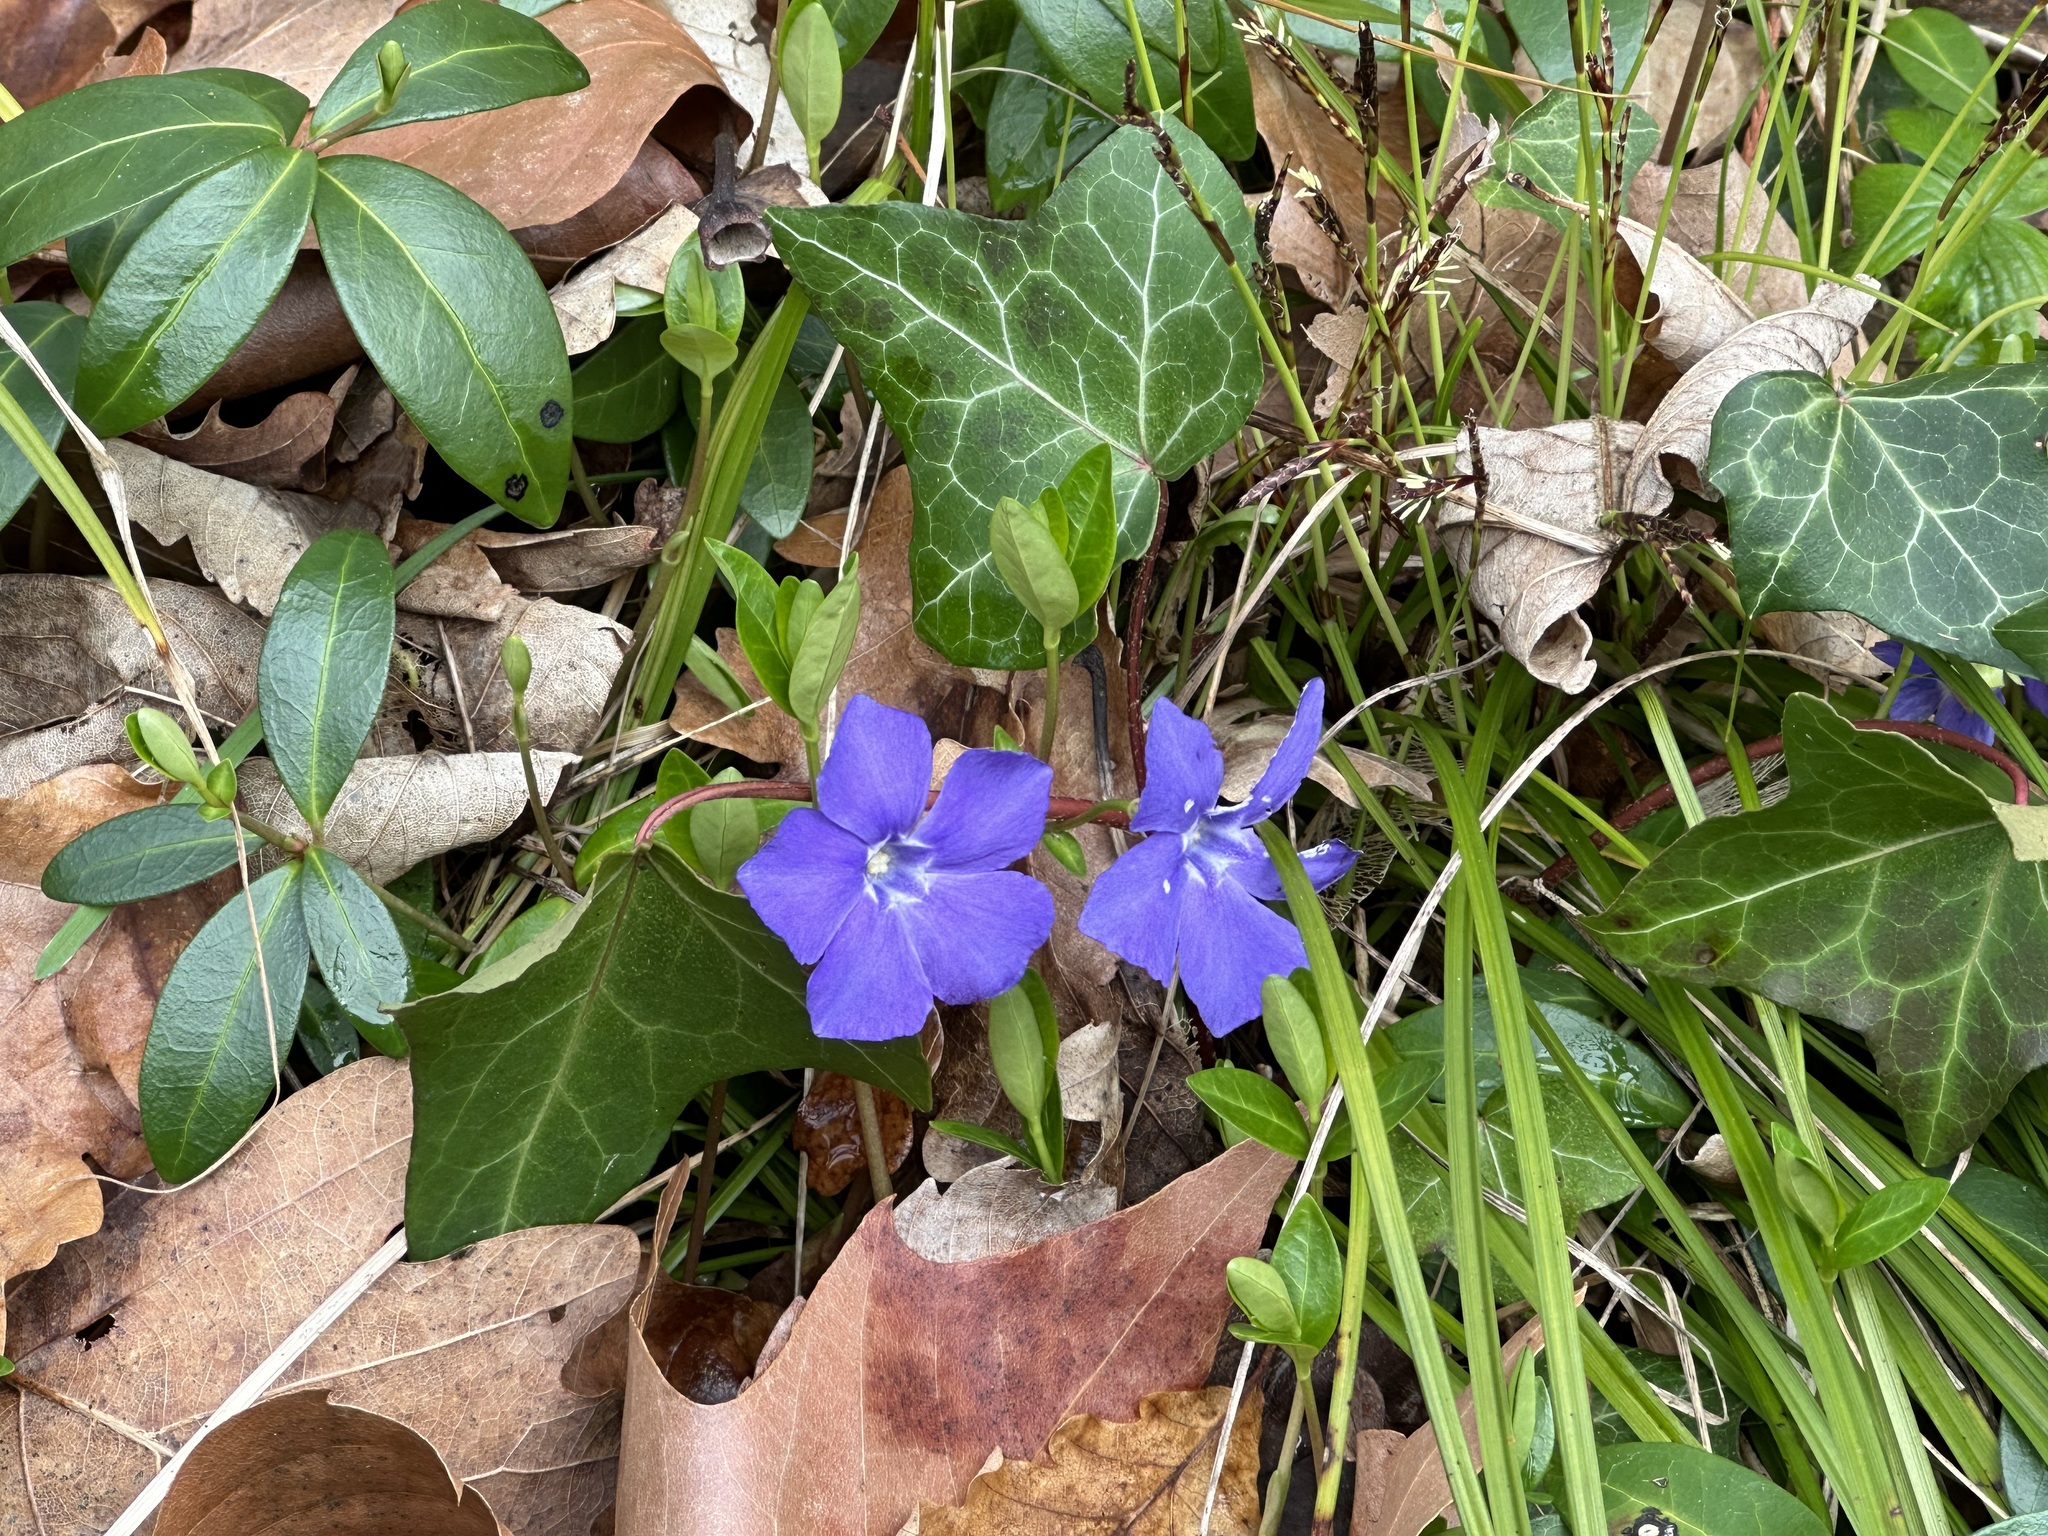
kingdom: Plantae
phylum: Tracheophyta
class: Magnoliopsida
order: Gentianales
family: Apocynaceae
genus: Vinca
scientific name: Vinca minor
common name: Lesser periwinkle
